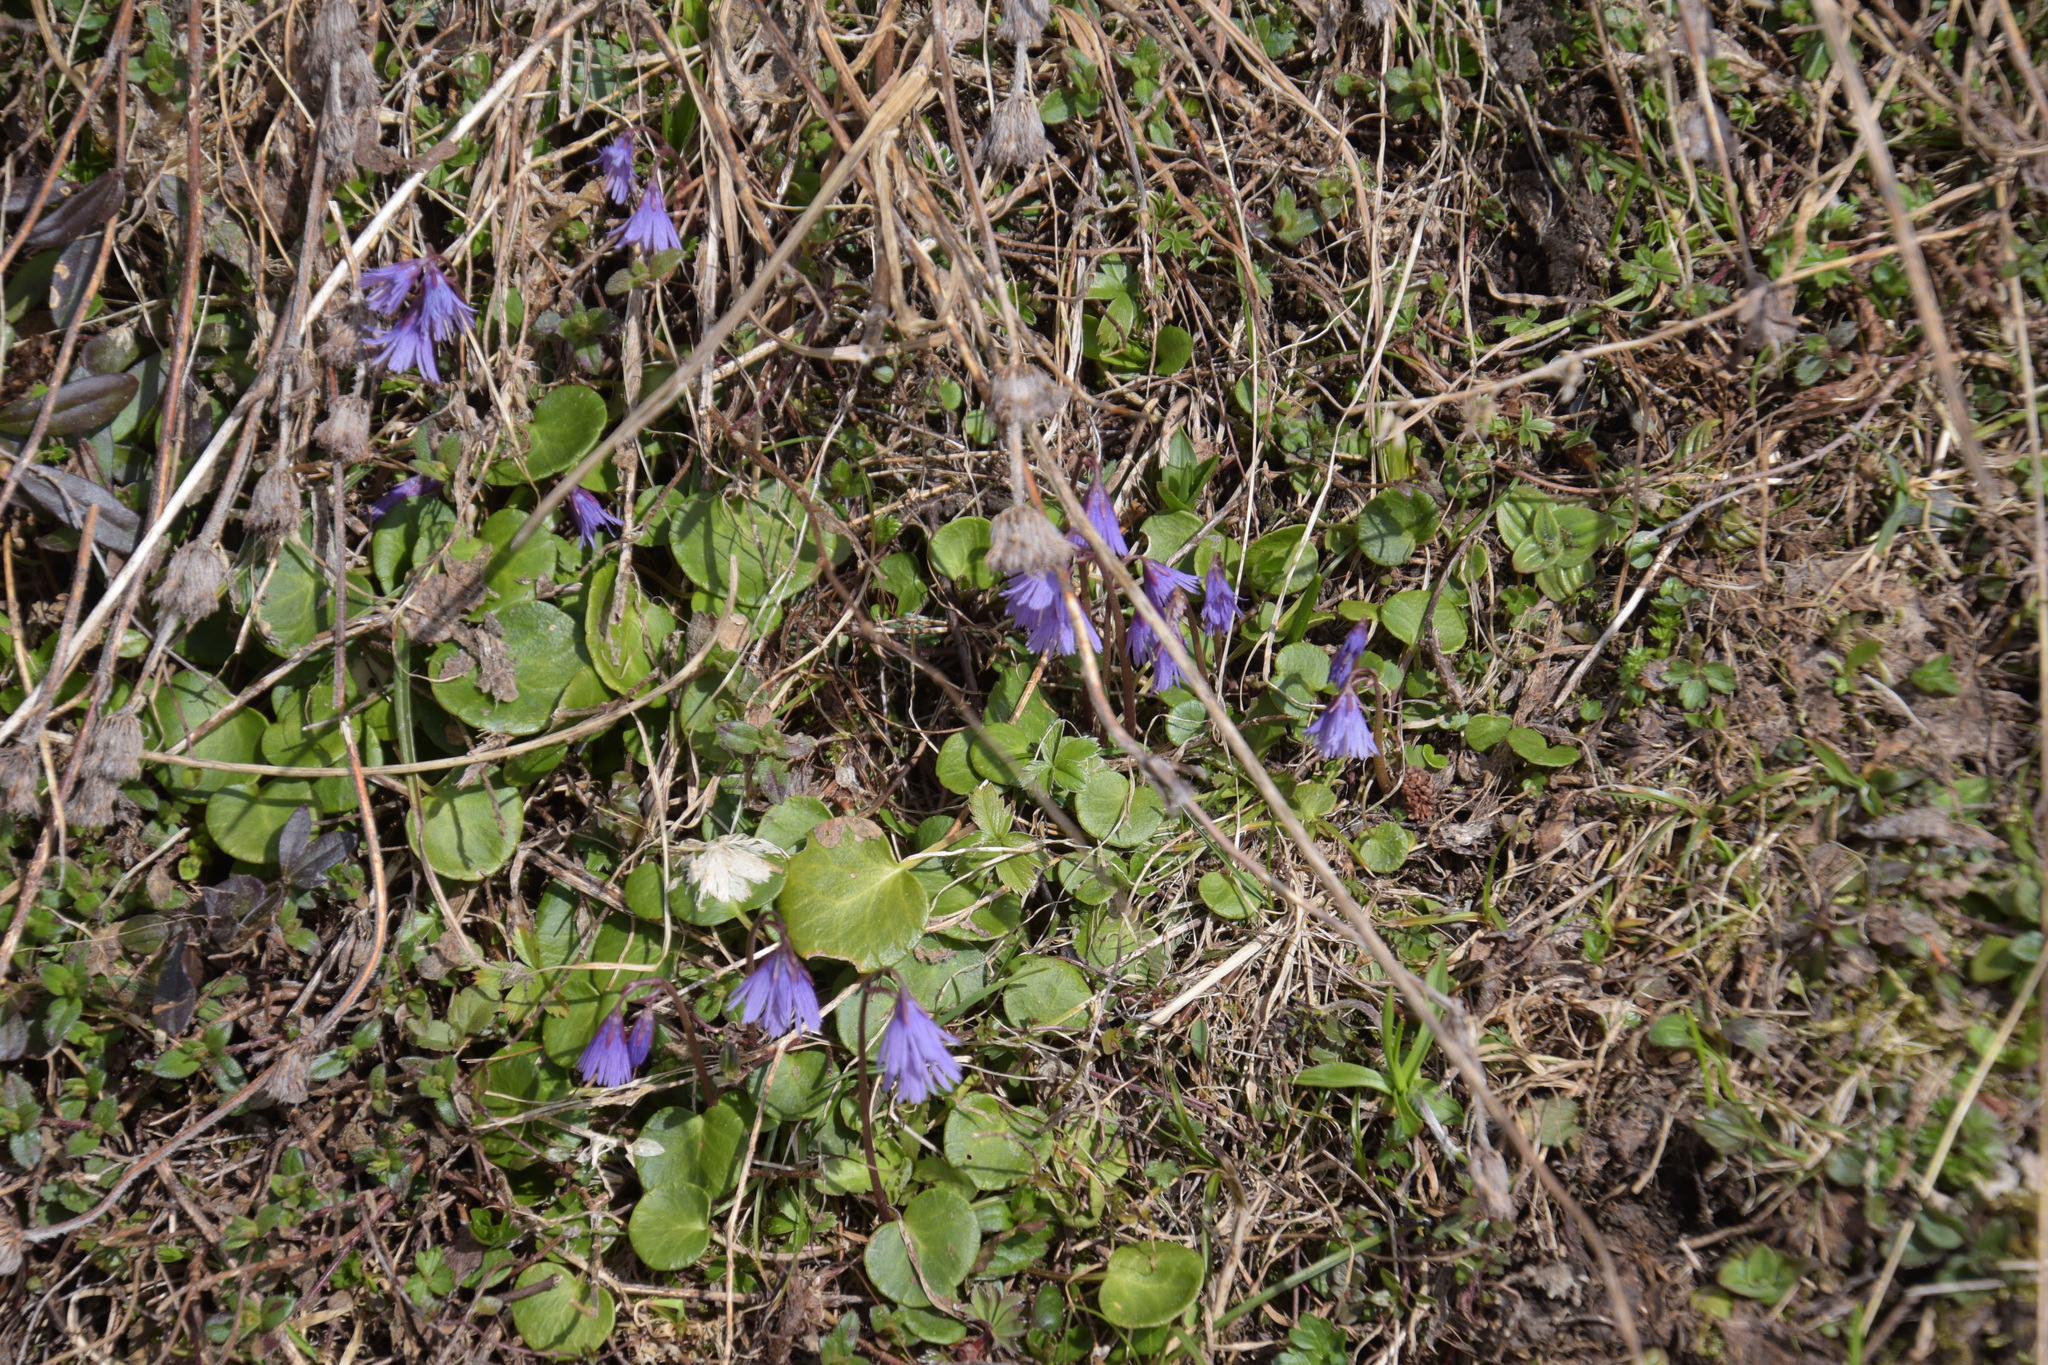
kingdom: Plantae
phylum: Tracheophyta
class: Magnoliopsida
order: Ericales
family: Primulaceae
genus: Soldanella
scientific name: Soldanella alpina
